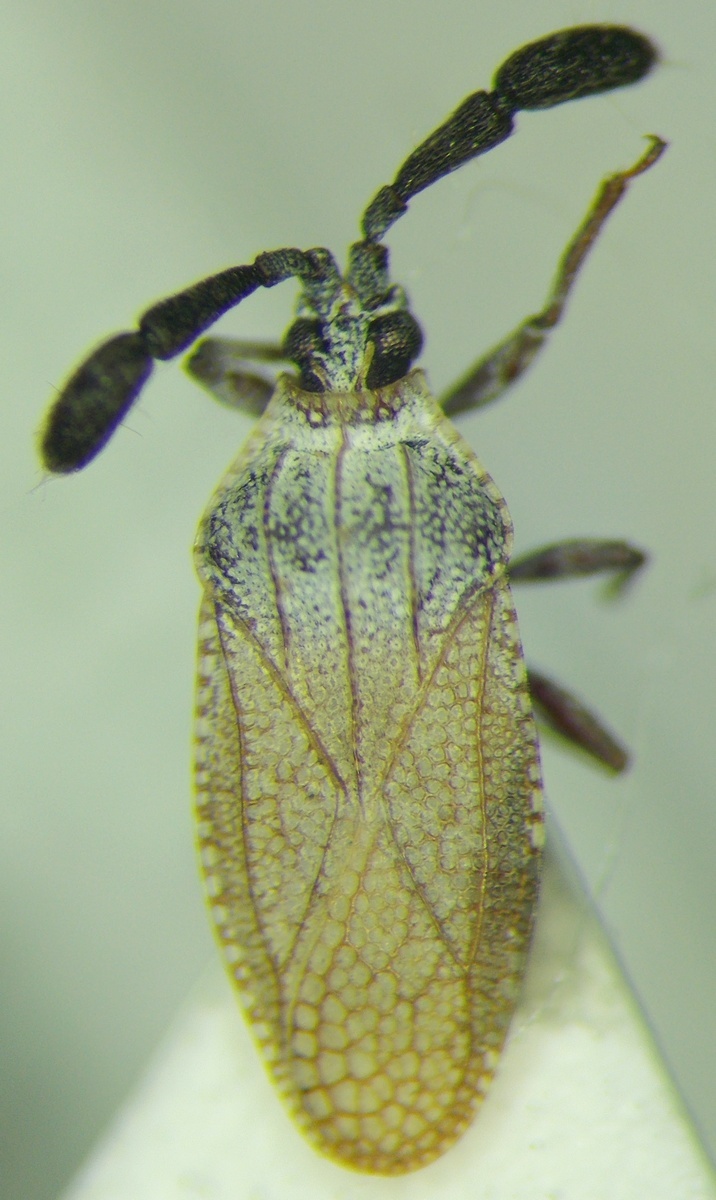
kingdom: Animalia
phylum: Arthropoda
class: Insecta
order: Hemiptera
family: Tingidae
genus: Copium
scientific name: Copium teucrii
